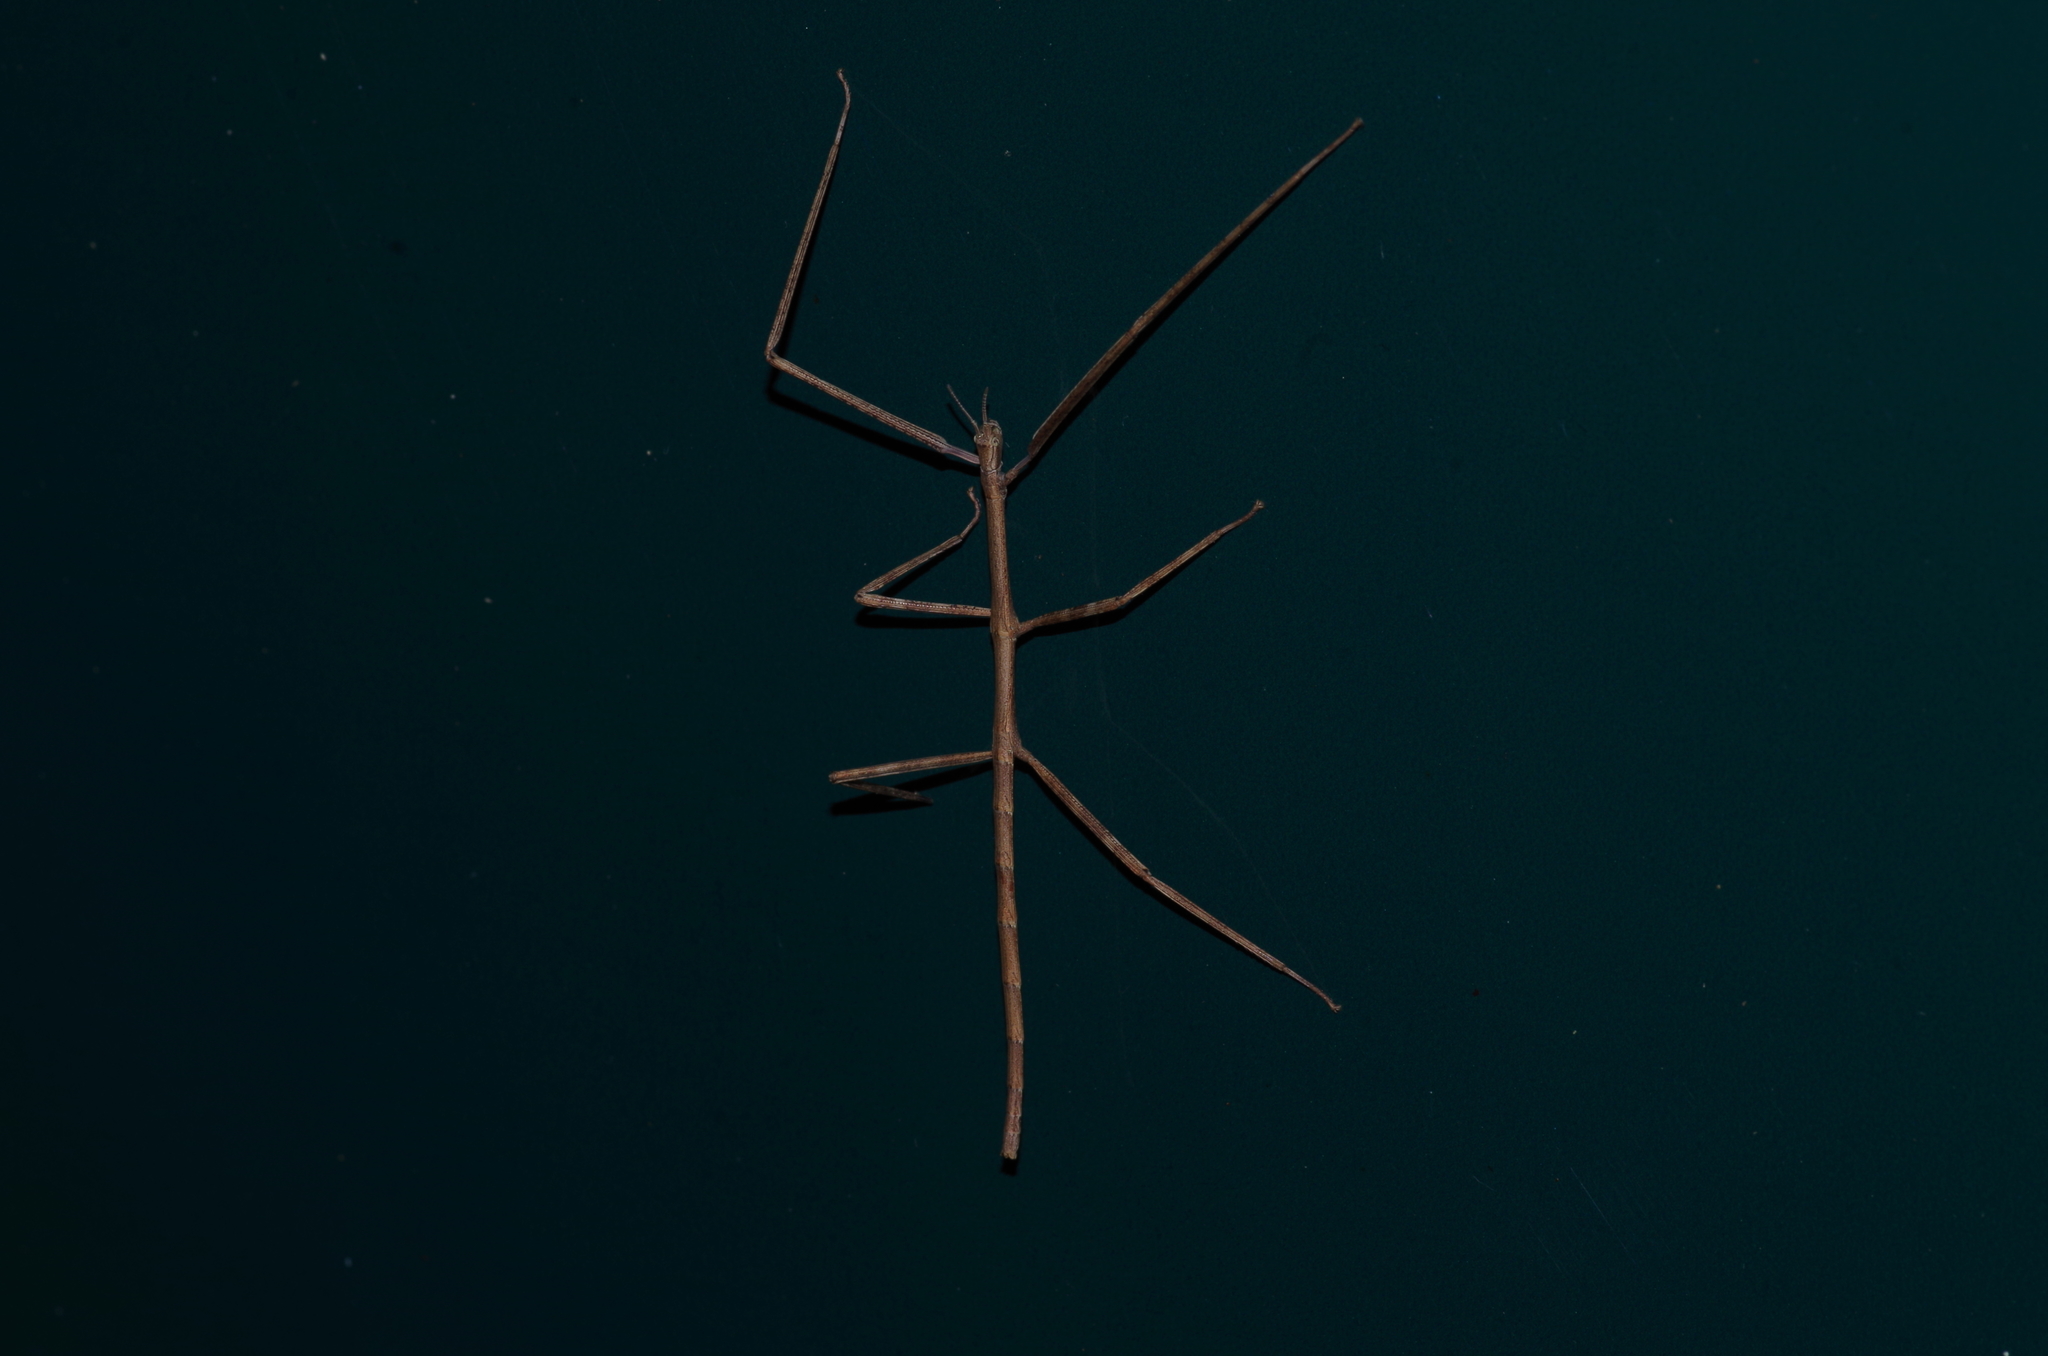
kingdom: Animalia
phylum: Arthropoda
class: Insecta
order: Phasmida
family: Phasmatidae
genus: Entoria
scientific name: Entoria miyakoensis
